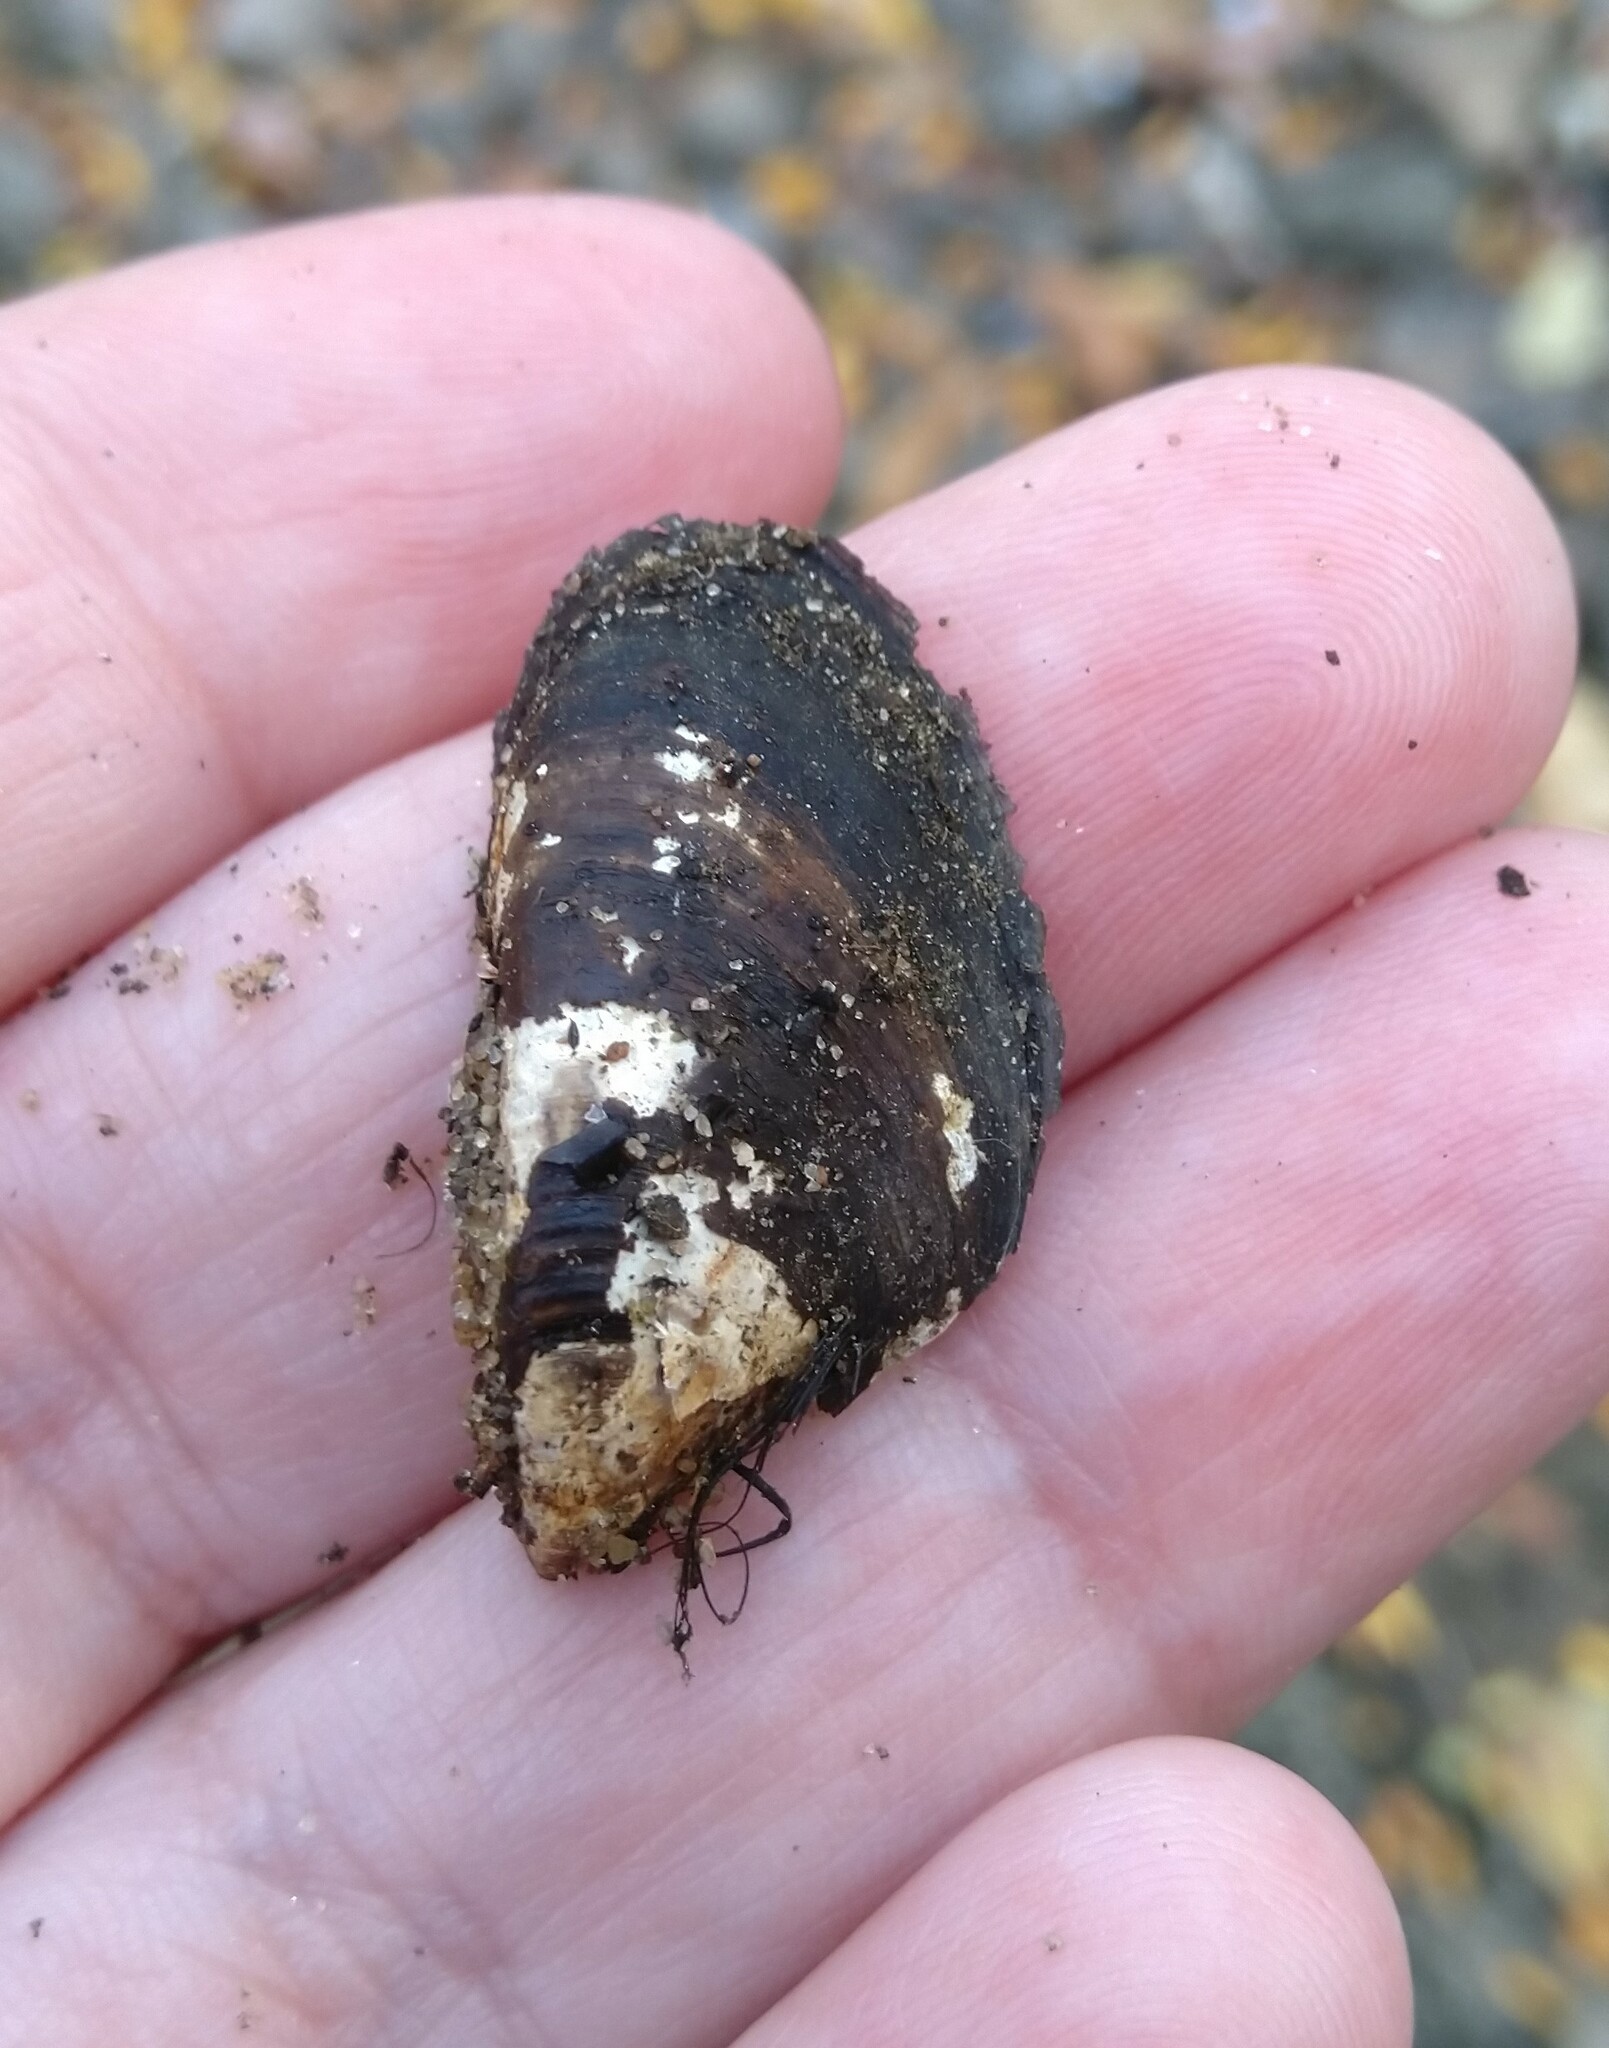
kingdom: Animalia
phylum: Mollusca
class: Bivalvia
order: Myida
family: Dreissenidae
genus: Dreissena
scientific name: Dreissena polymorpha
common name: Zebra mussel
